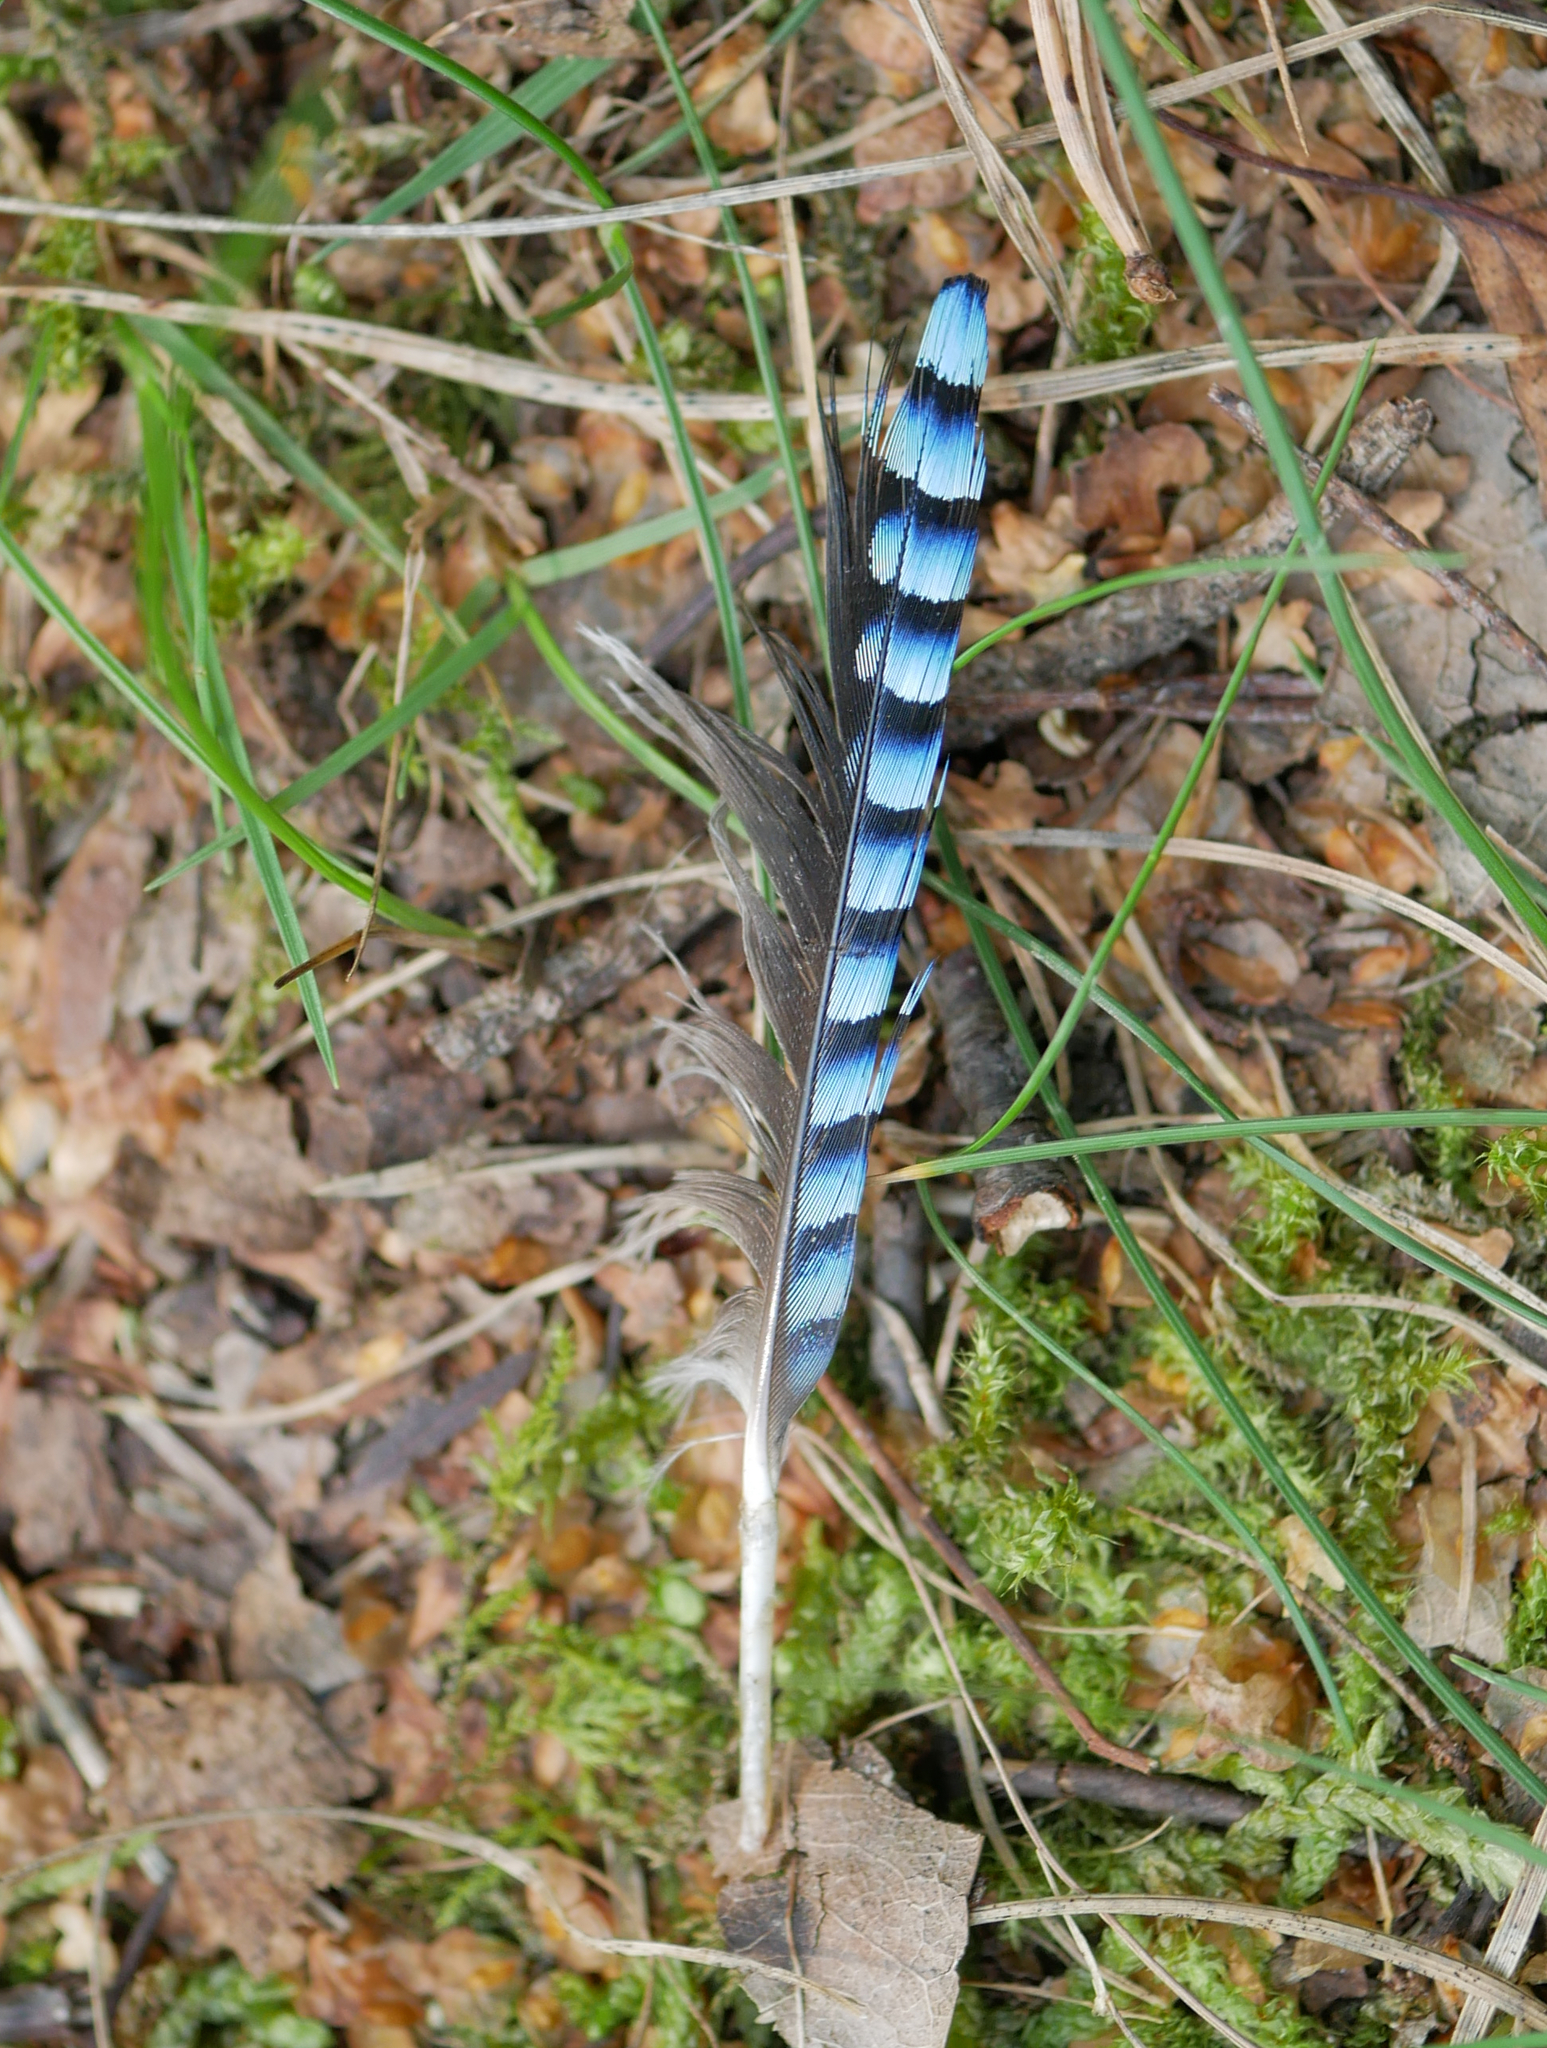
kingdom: Animalia
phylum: Chordata
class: Aves
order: Passeriformes
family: Corvidae
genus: Garrulus
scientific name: Garrulus glandarius
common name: Eurasian jay
